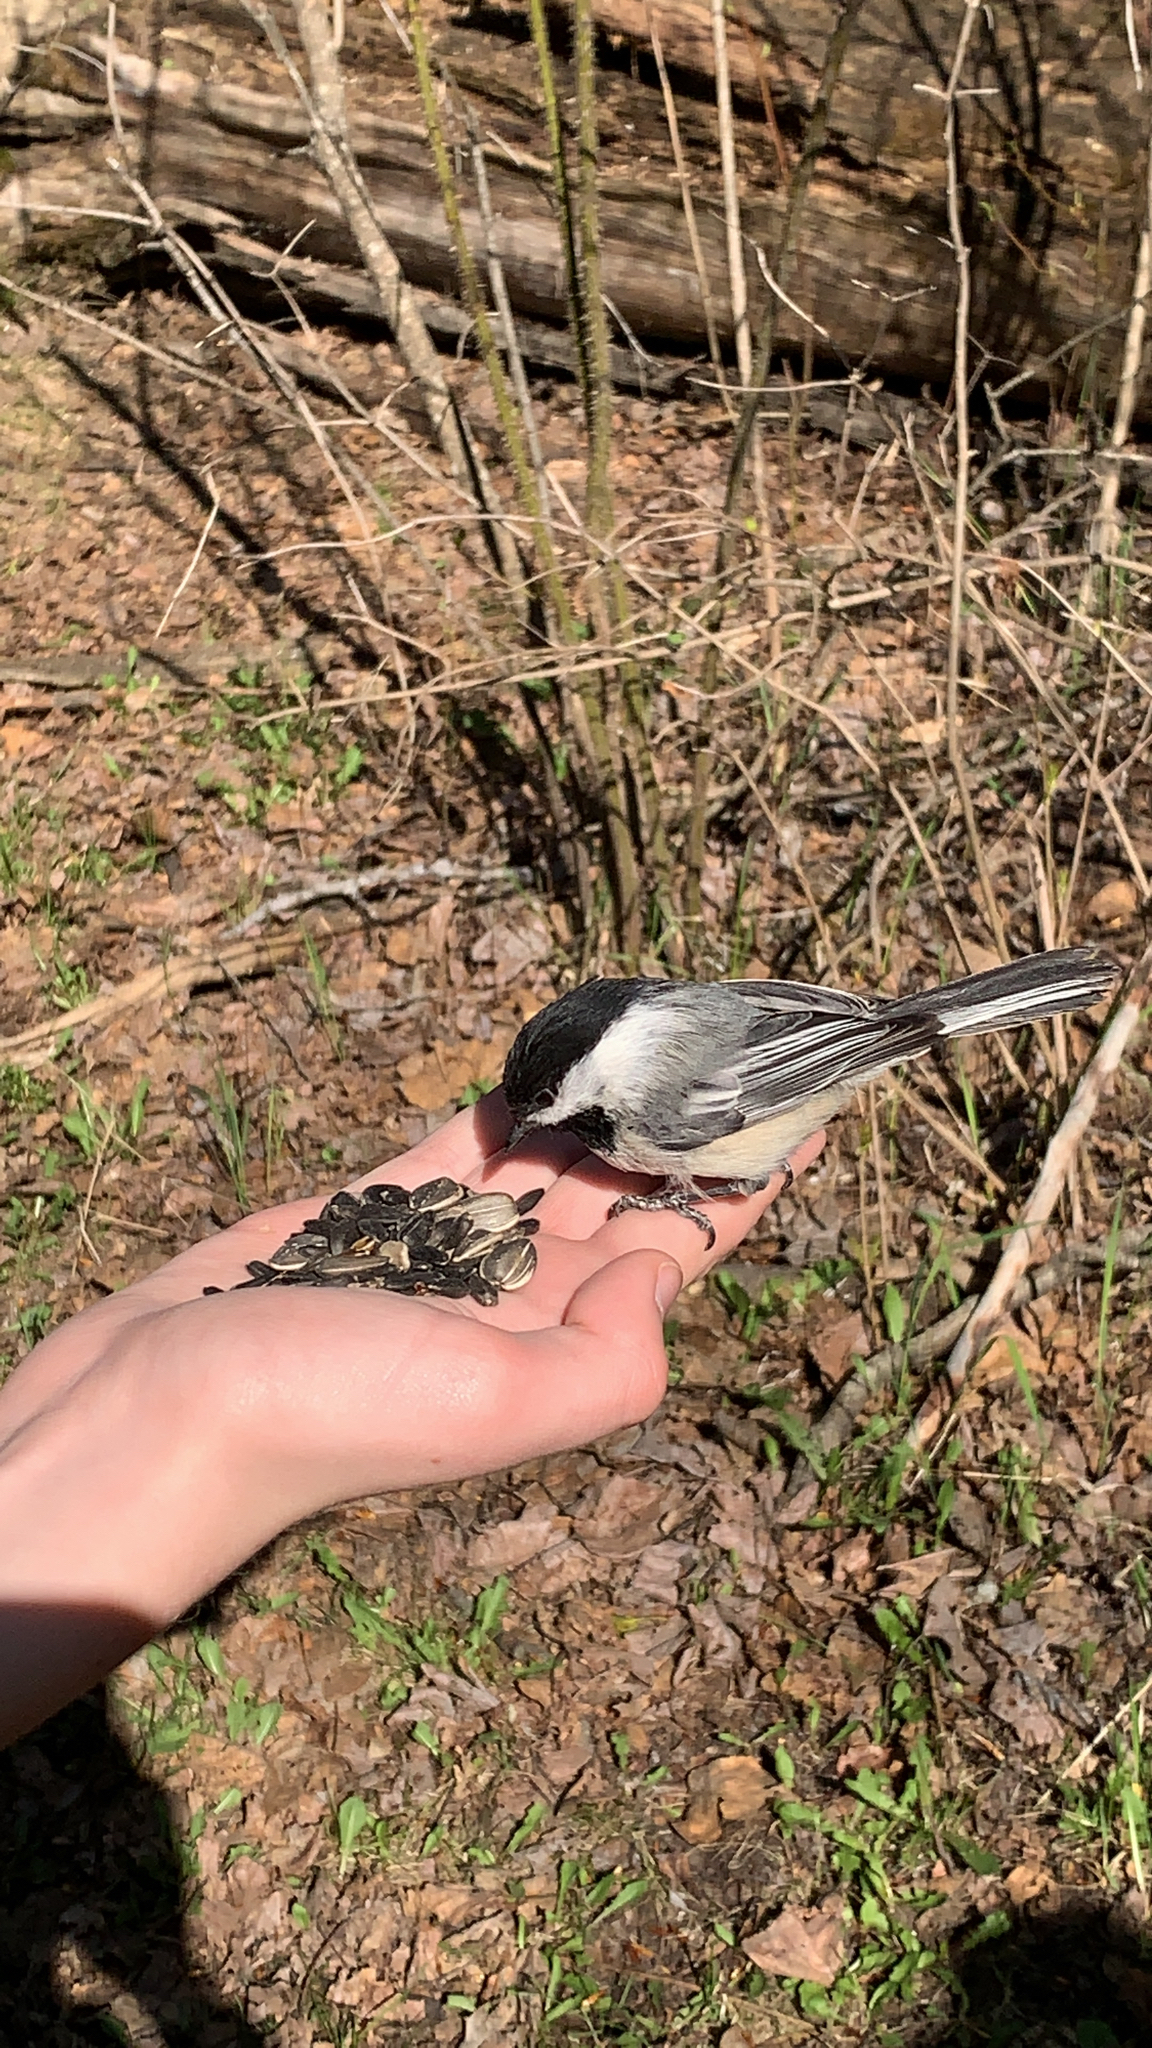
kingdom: Animalia
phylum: Chordata
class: Aves
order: Passeriformes
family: Paridae
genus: Poecile
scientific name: Poecile atricapillus
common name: Black-capped chickadee
